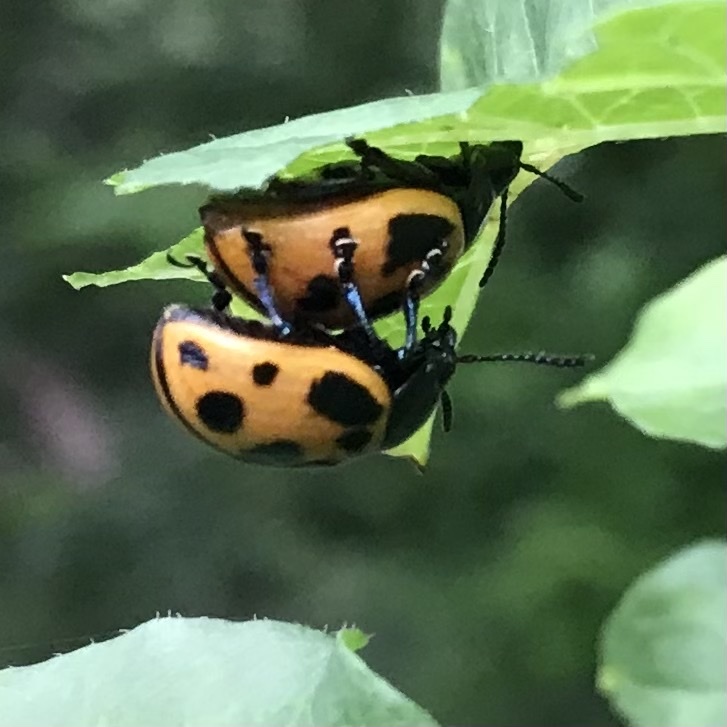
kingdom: Animalia
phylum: Arthropoda
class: Insecta
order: Coleoptera
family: Chrysomelidae
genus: Labidomera
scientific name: Labidomera clivicollis
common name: Swamp milkweed leaf beetle
